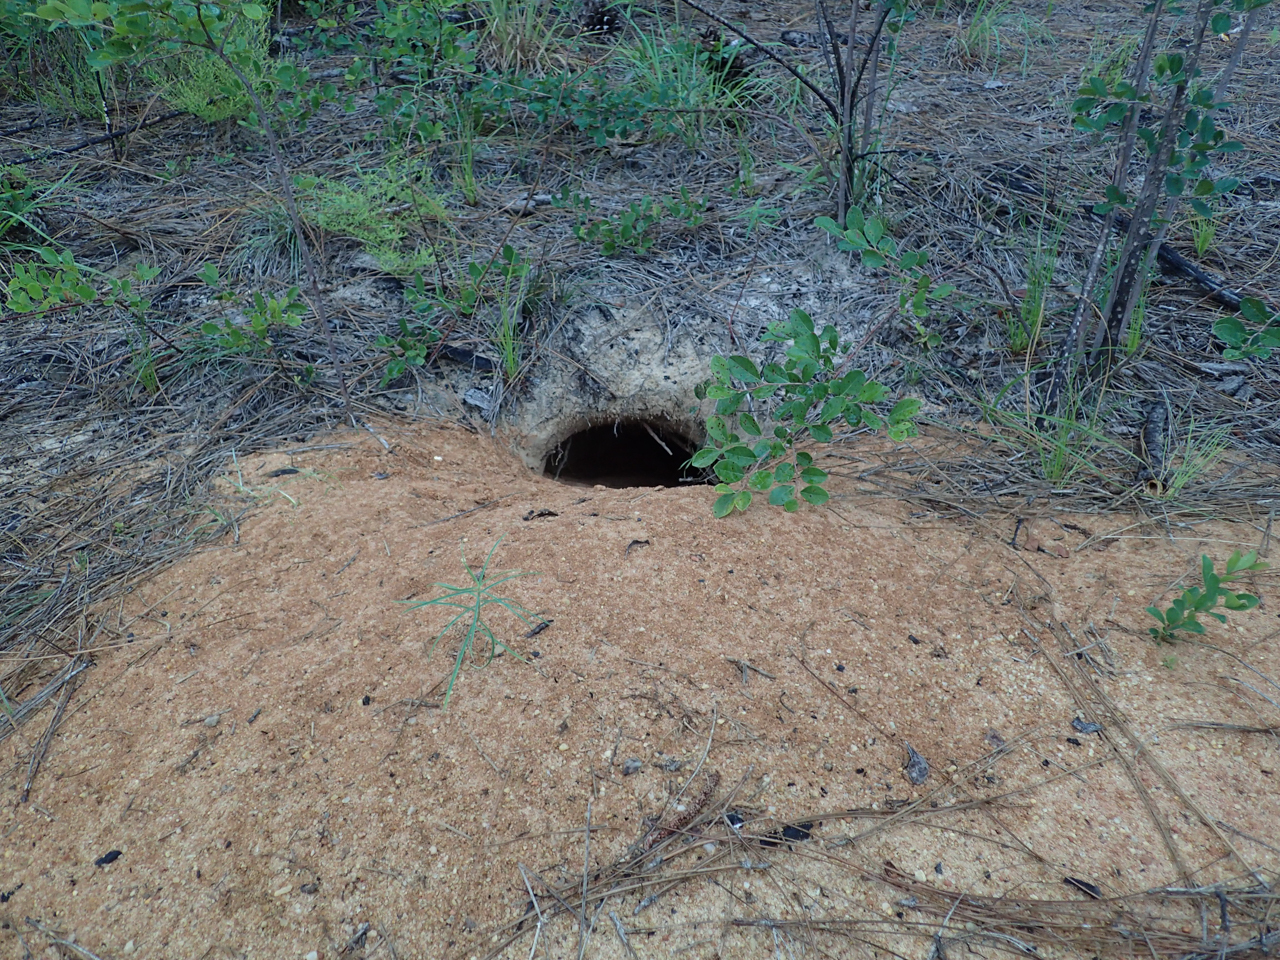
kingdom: Animalia
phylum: Chordata
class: Testudines
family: Testudinidae
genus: Gopherus
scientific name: Gopherus polyphemus
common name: Florida gopher tortoise
